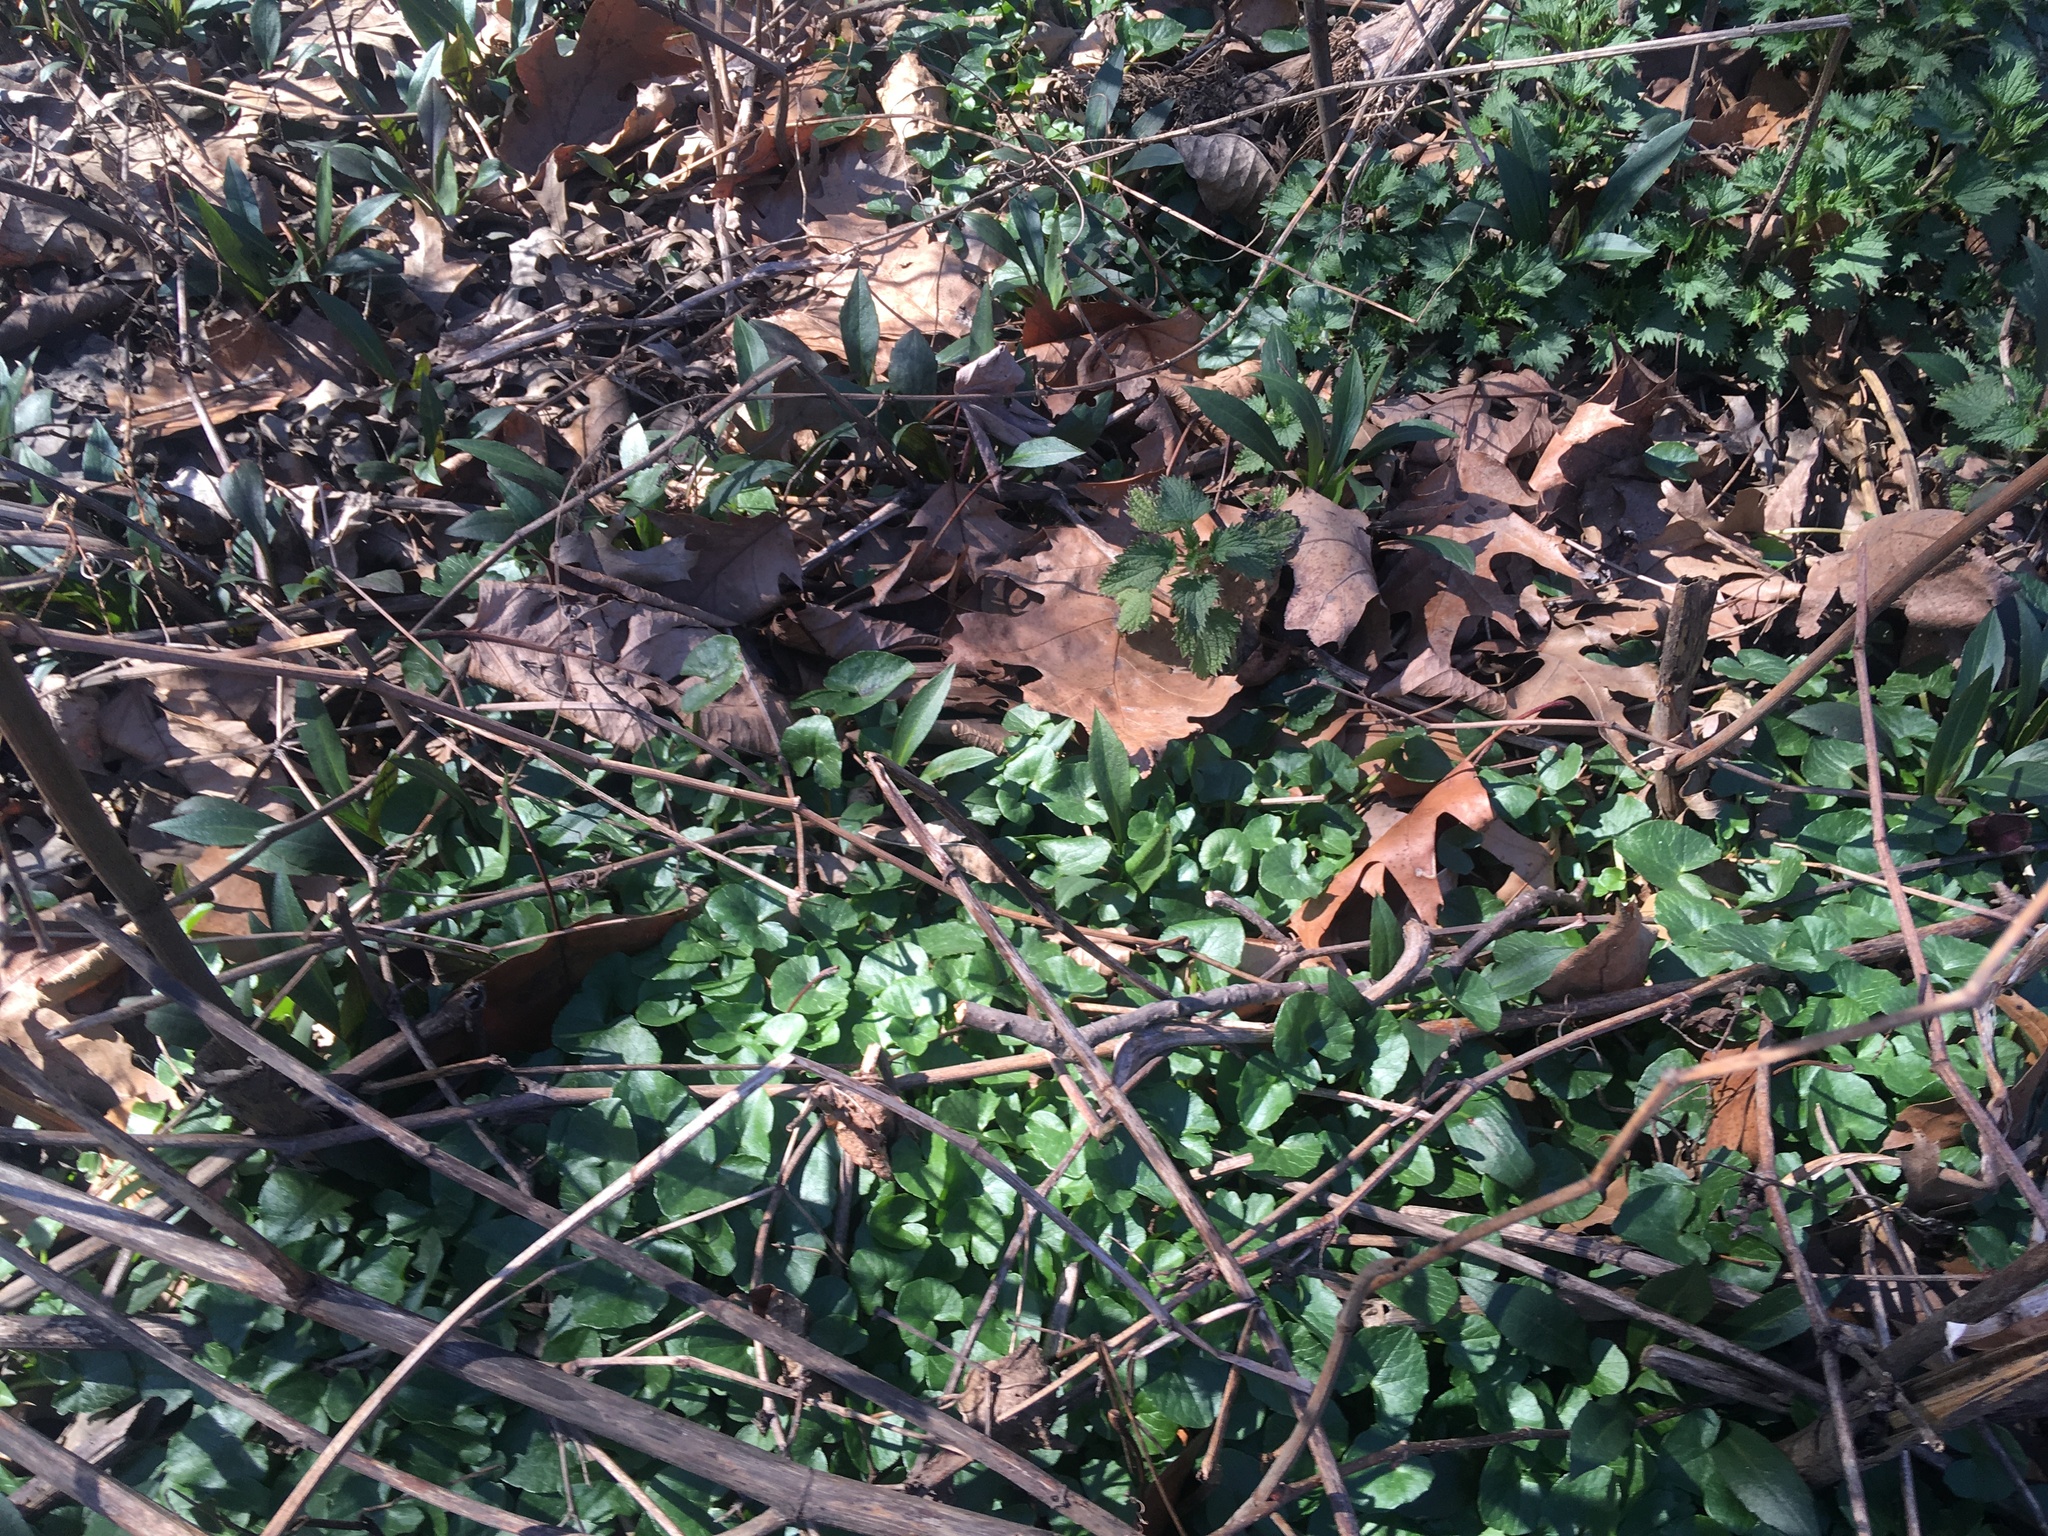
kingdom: Plantae
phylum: Tracheophyta
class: Magnoliopsida
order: Ranunculales
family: Ranunculaceae
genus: Ficaria
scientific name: Ficaria verna
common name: Lesser celandine
